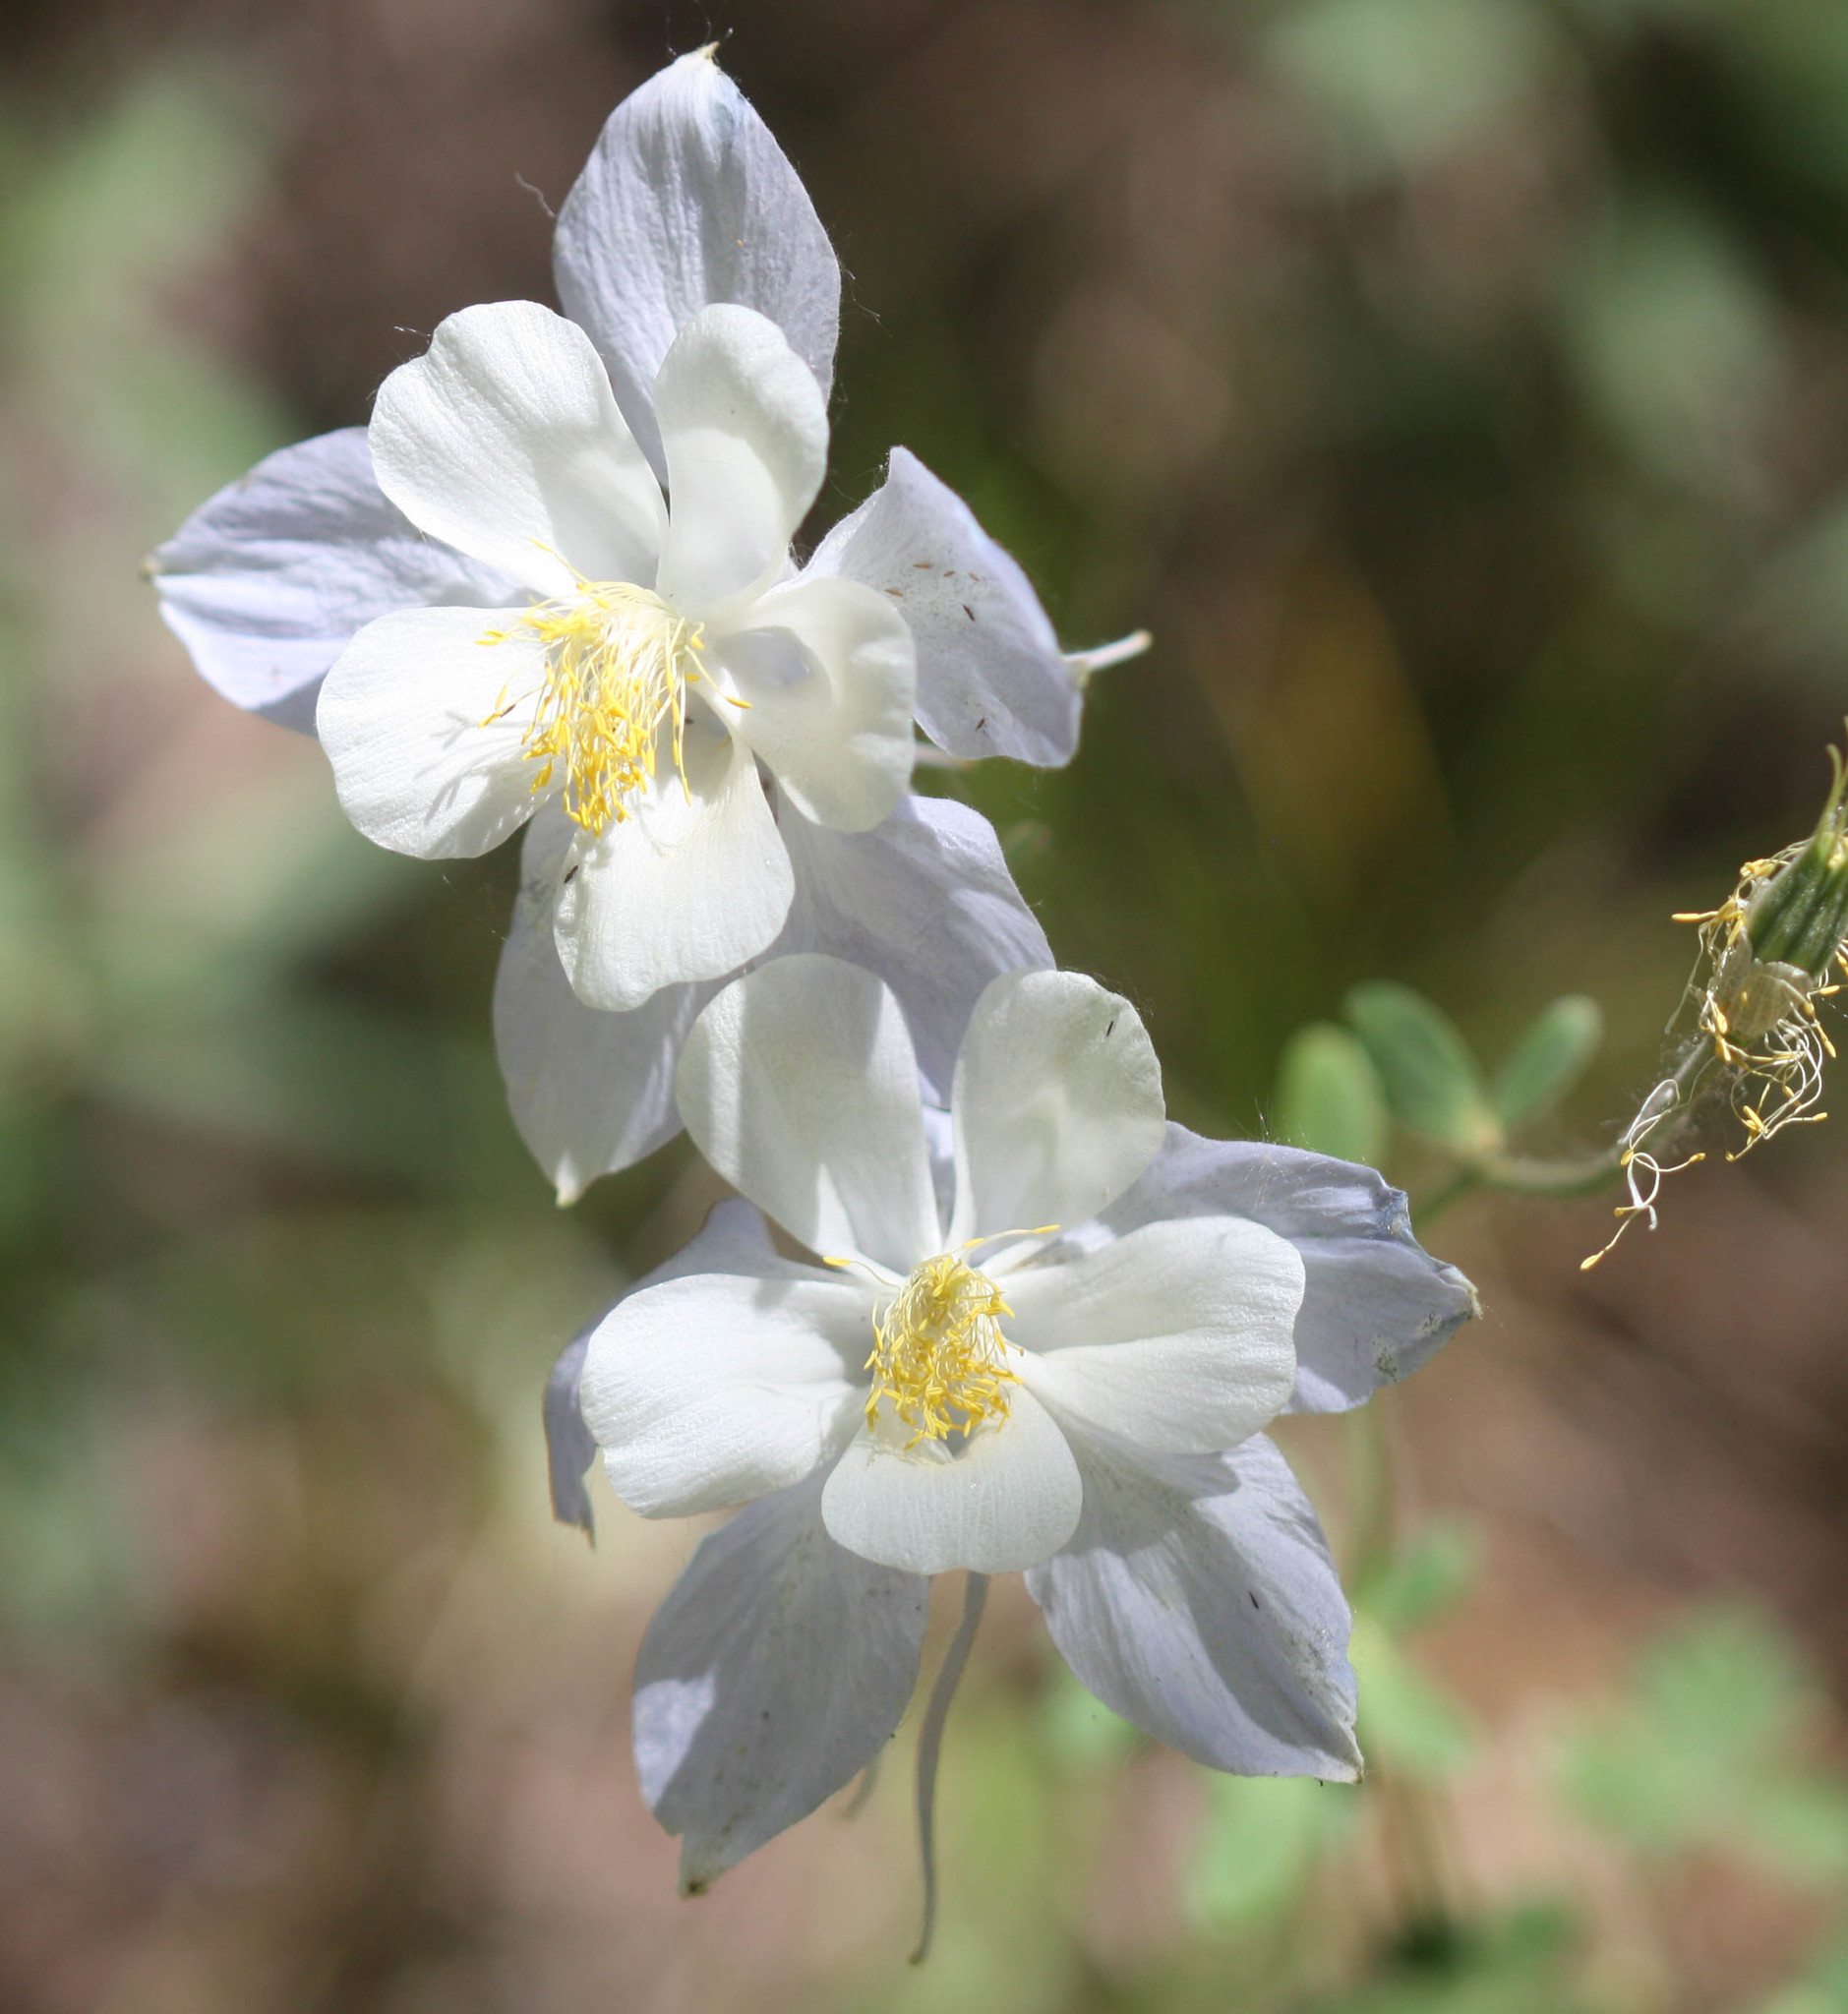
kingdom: Plantae
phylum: Tracheophyta
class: Magnoliopsida
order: Ranunculales
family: Ranunculaceae
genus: Aquilegia
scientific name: Aquilegia coerulea
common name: Rocky mountain columbine
